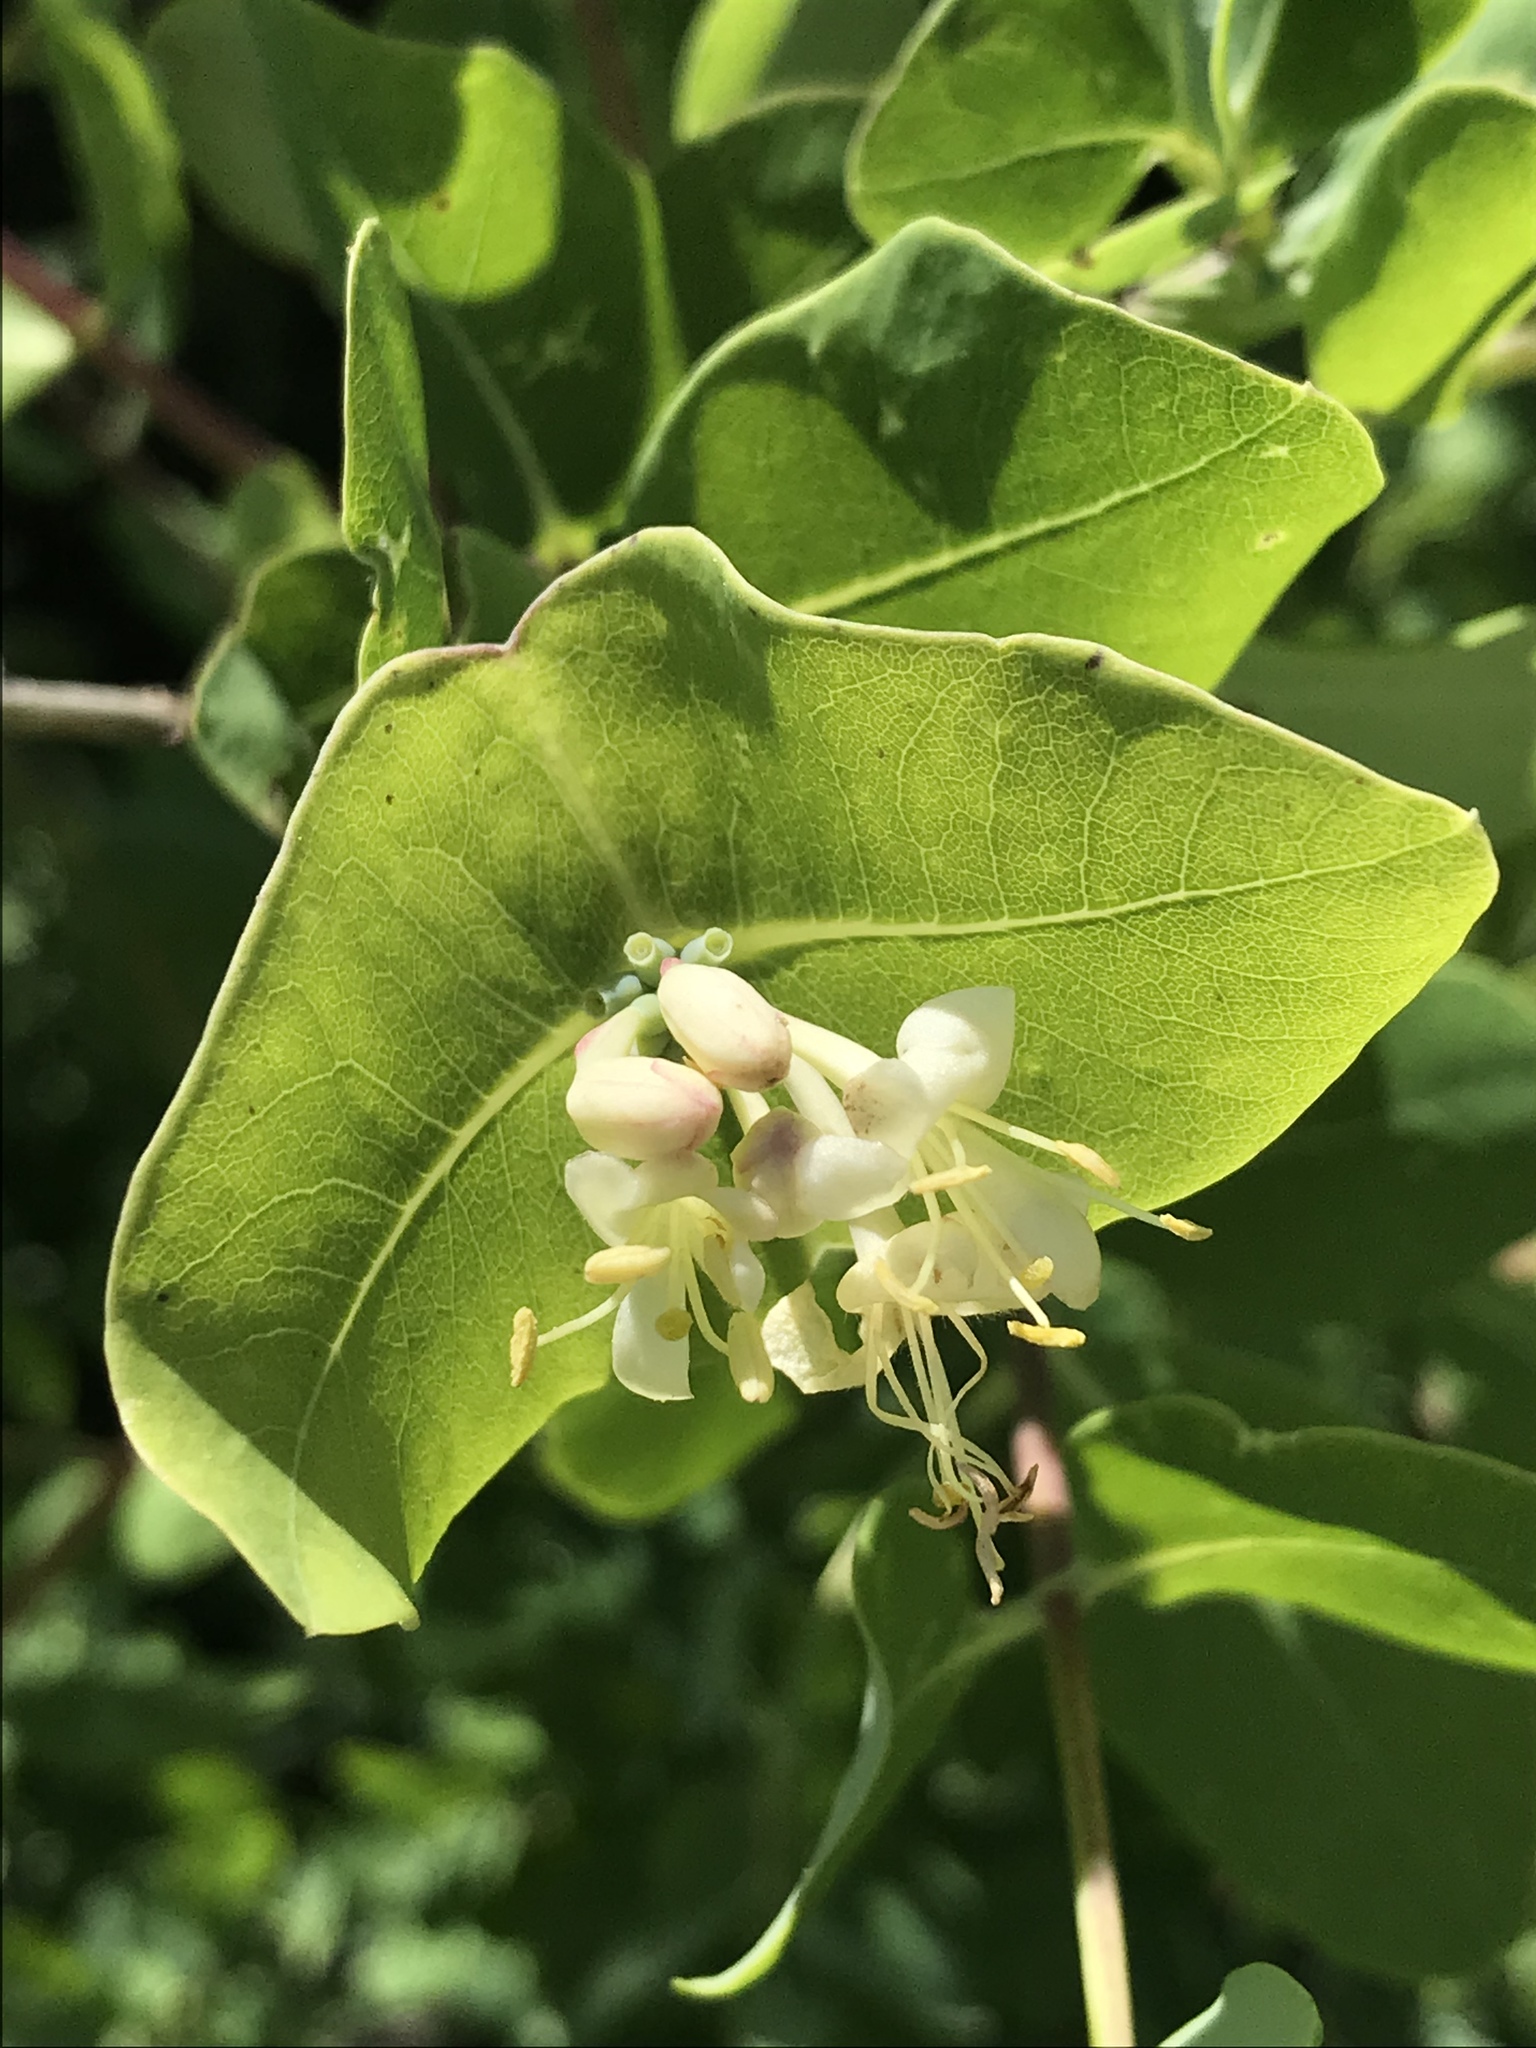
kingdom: Plantae
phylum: Tracheophyta
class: Magnoliopsida
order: Dipsacales
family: Caprifoliaceae
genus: Lonicera
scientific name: Lonicera albiflora
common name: White honeysuckle
